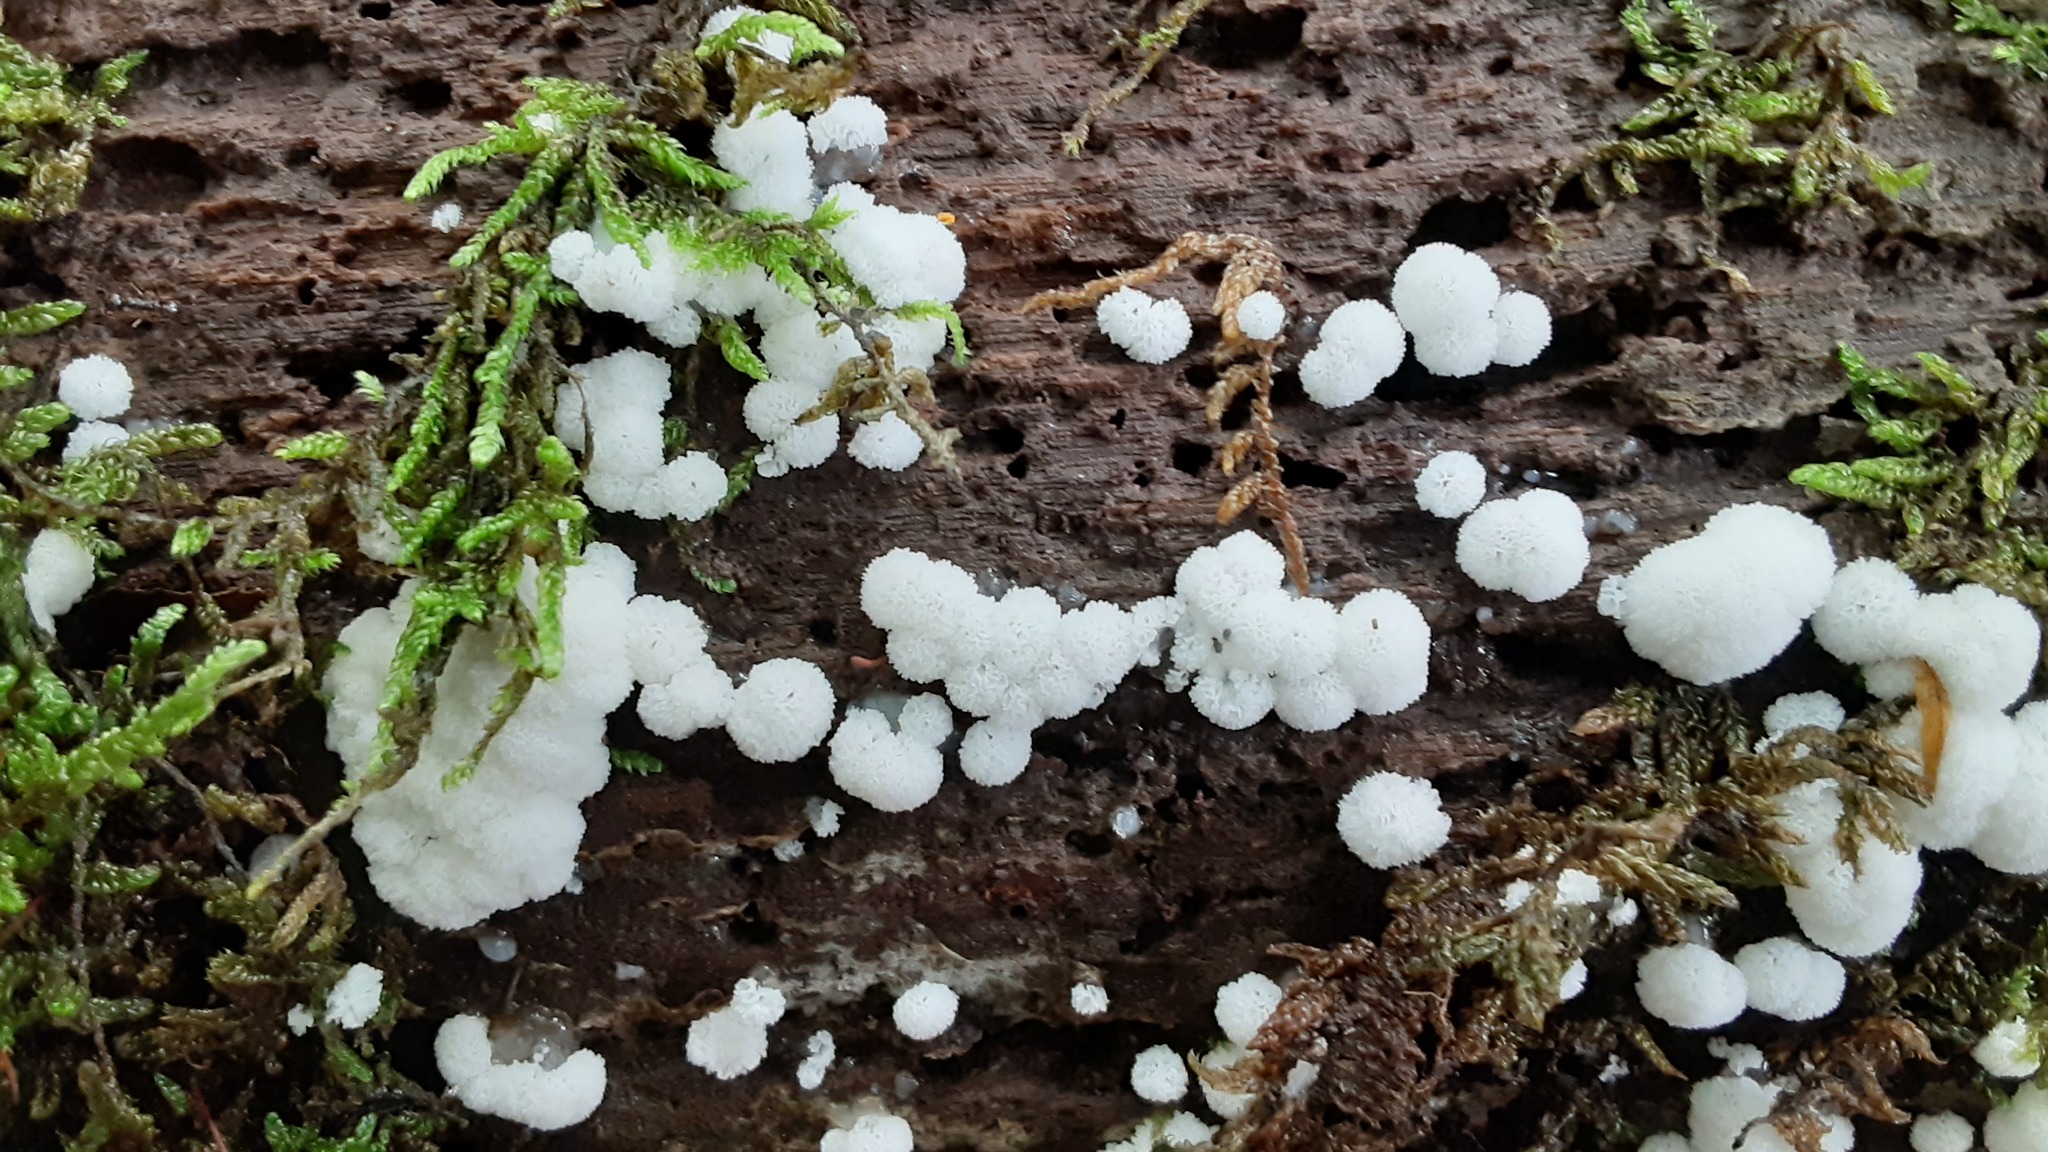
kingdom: Protozoa
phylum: Mycetozoa
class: Protosteliomycetes
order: Ceratiomyxales
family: Ceratiomyxaceae
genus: Ceratiomyxa
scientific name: Ceratiomyxa fruticulosa
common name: Honeycomb coral slime mold
